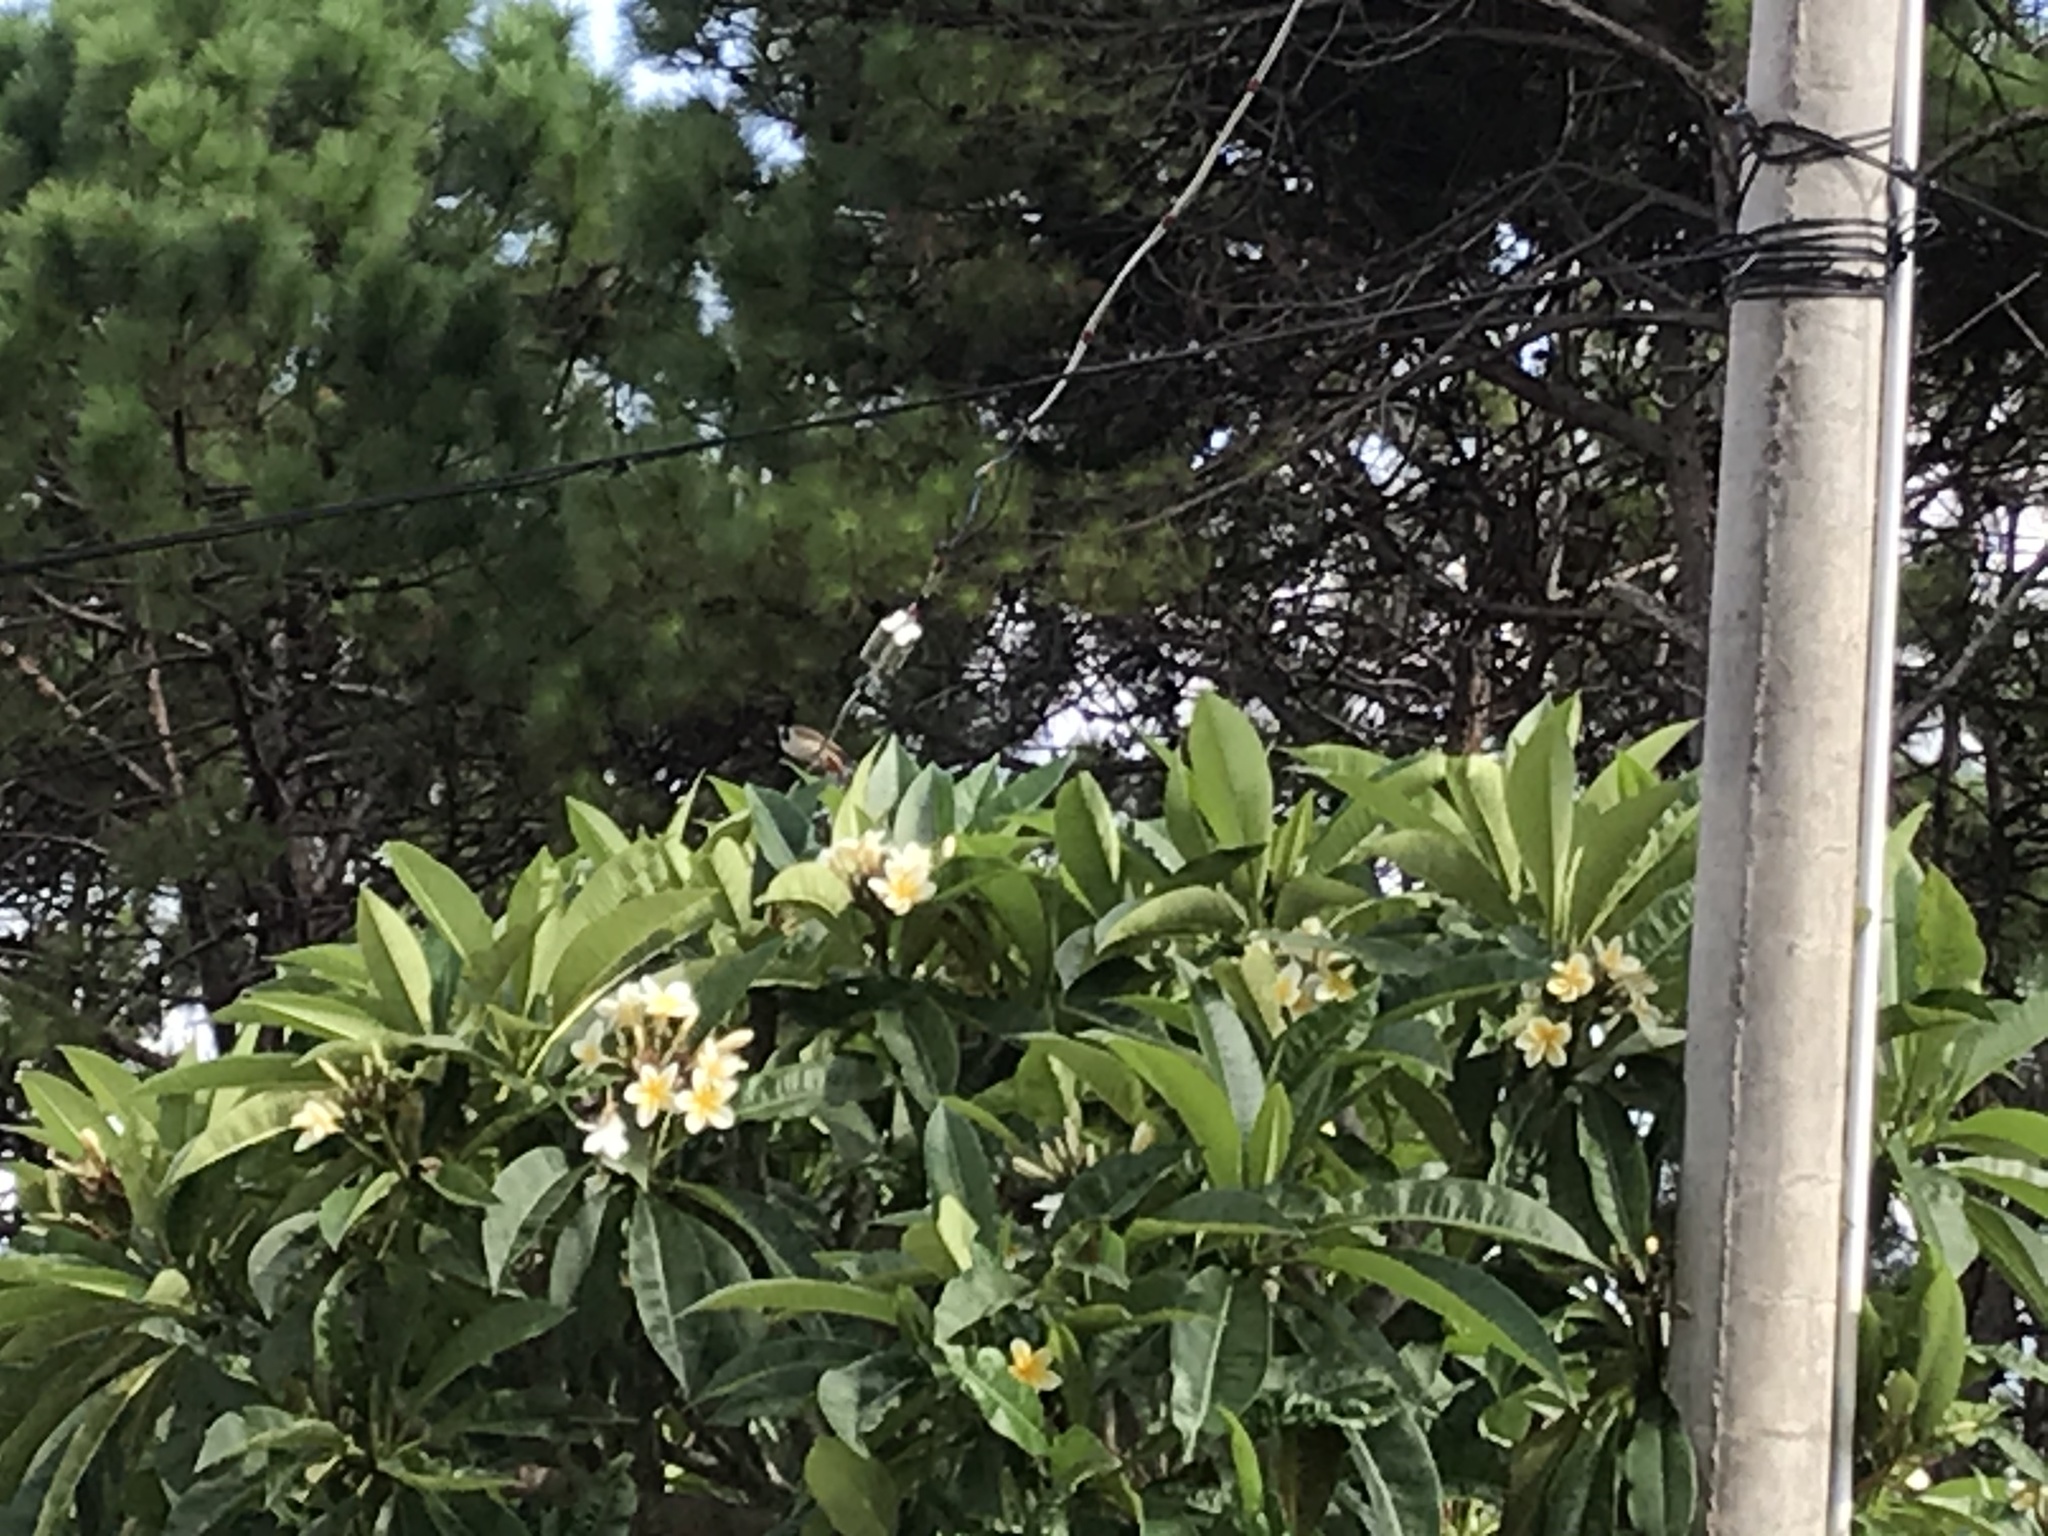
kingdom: Animalia
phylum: Chordata
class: Aves
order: Passeriformes
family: Pycnonotidae
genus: Pycnonotus
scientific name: Pycnonotus jocosus
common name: Red-whiskered bulbul
